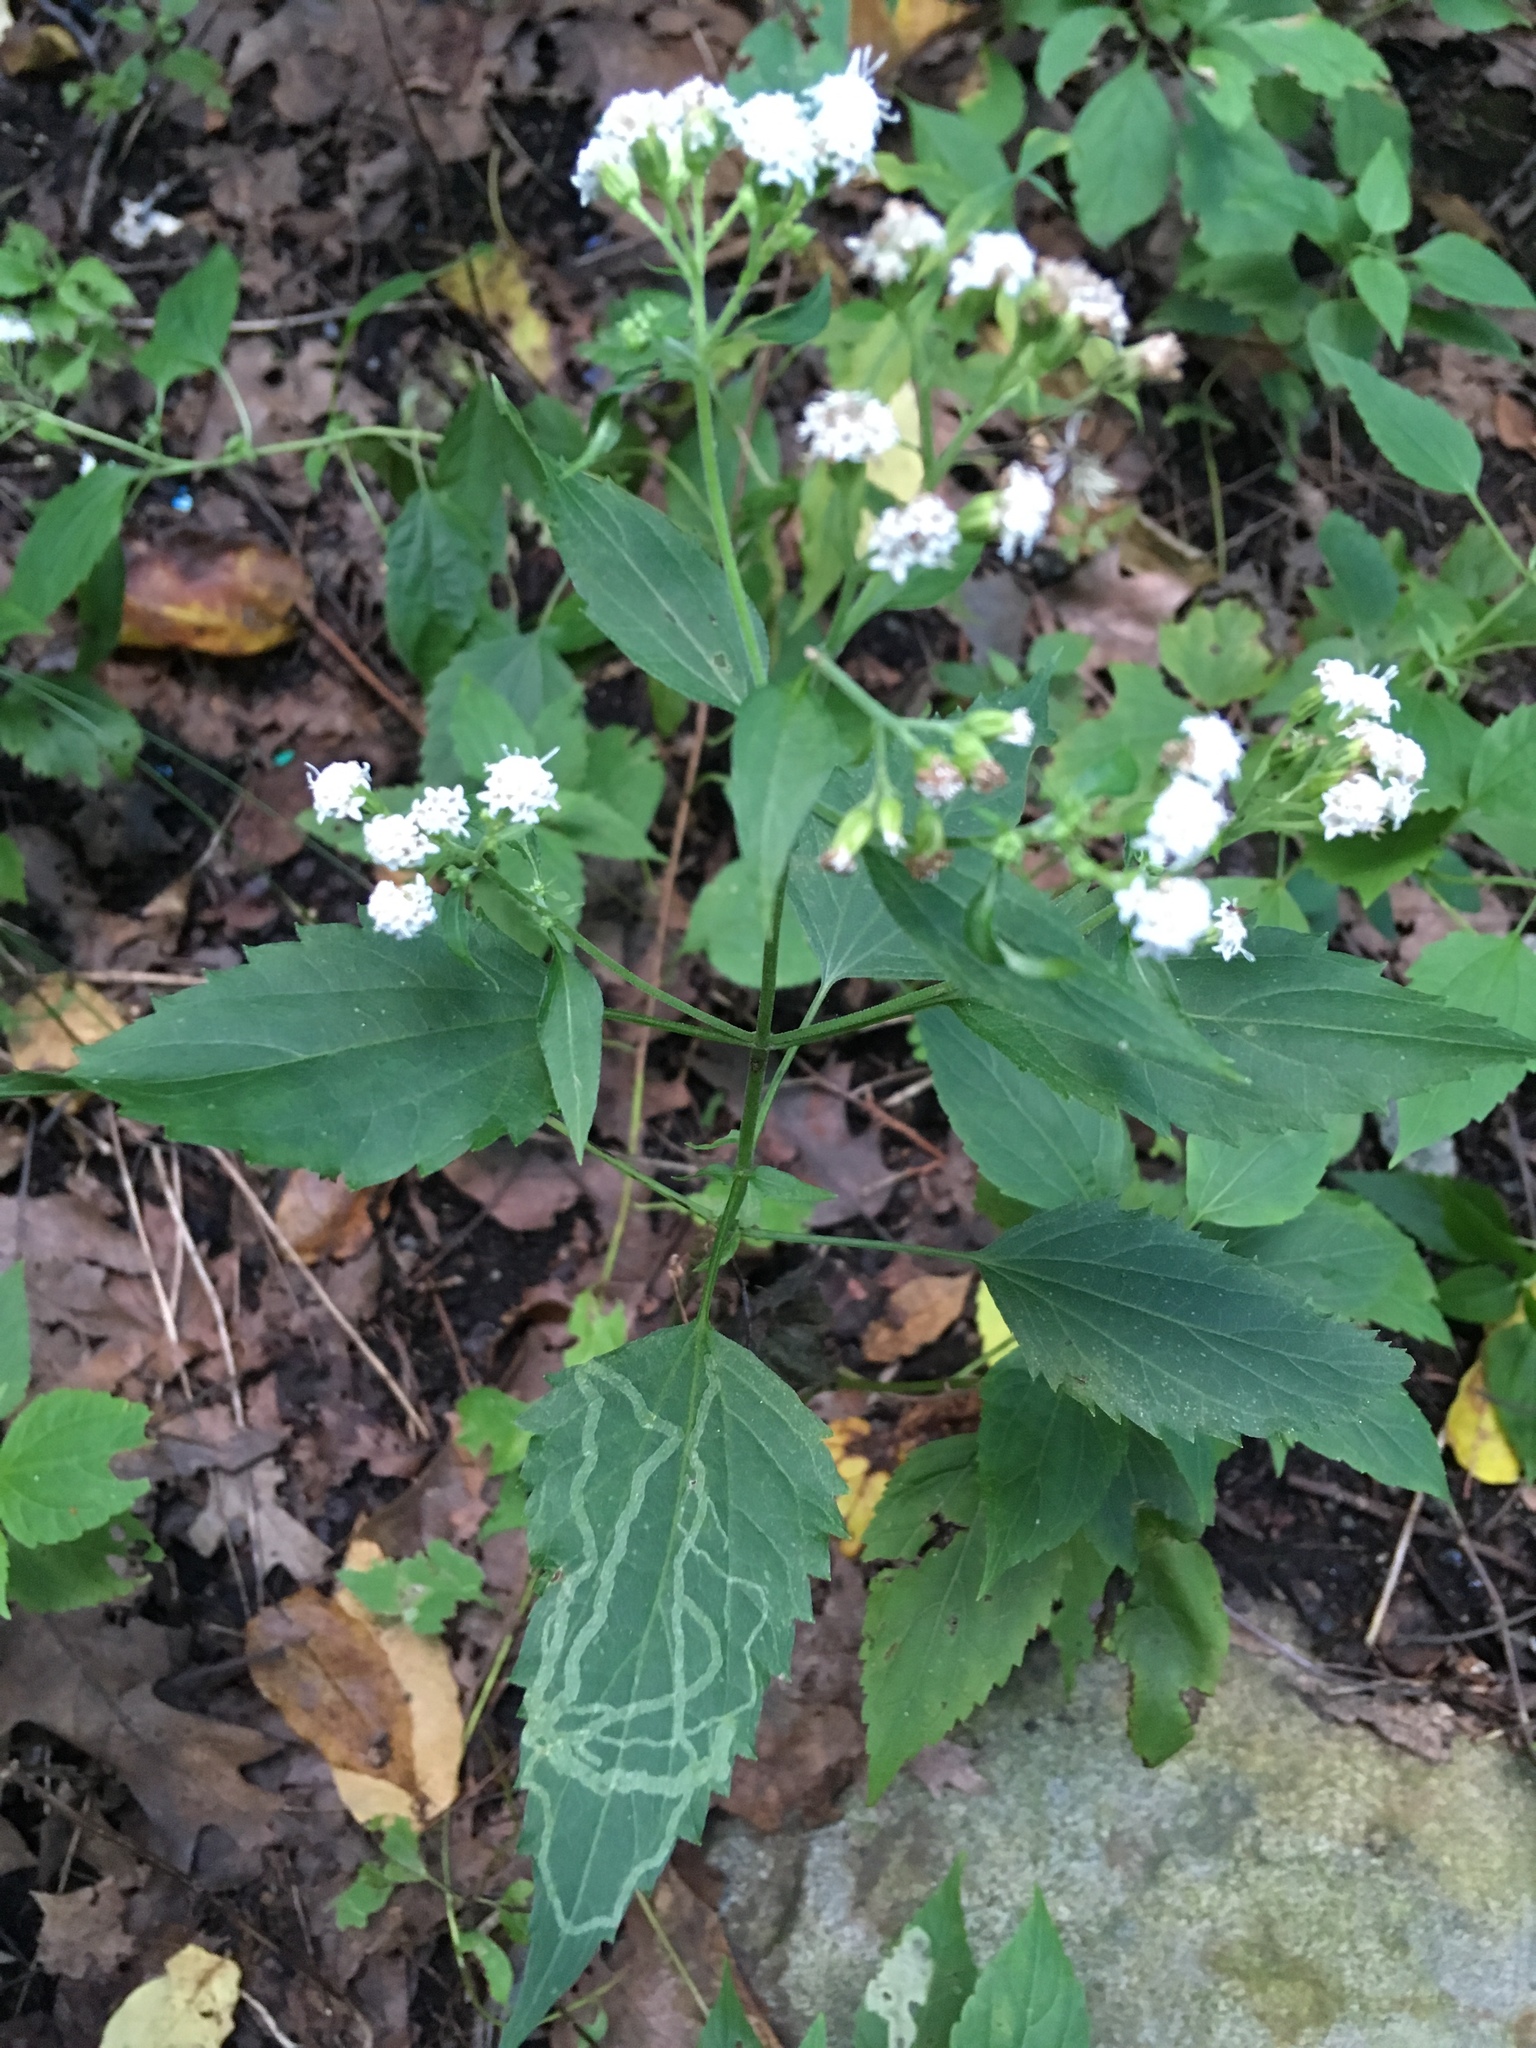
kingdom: Plantae
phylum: Tracheophyta
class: Magnoliopsida
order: Asterales
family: Asteraceae
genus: Ageratina
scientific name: Ageratina altissima
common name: White snakeroot
